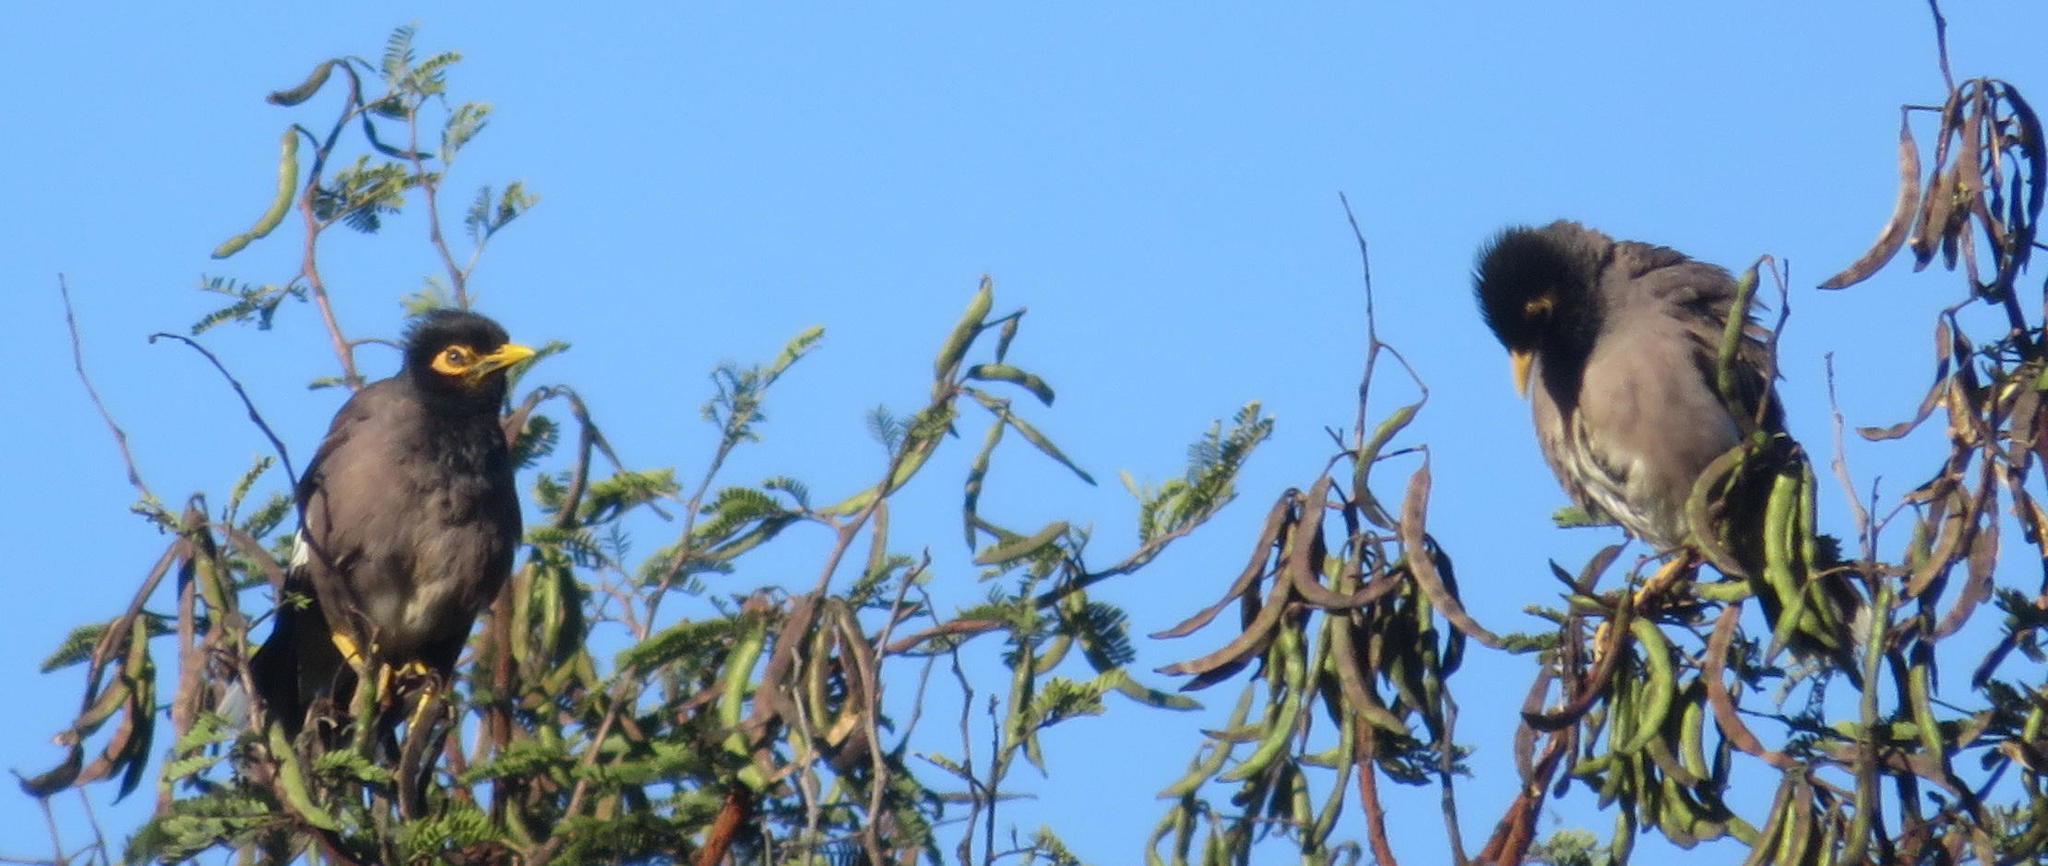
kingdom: Animalia
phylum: Chordata
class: Aves
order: Passeriformes
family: Sturnidae
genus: Acridotheres
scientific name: Acridotheres tristis
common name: Common myna
